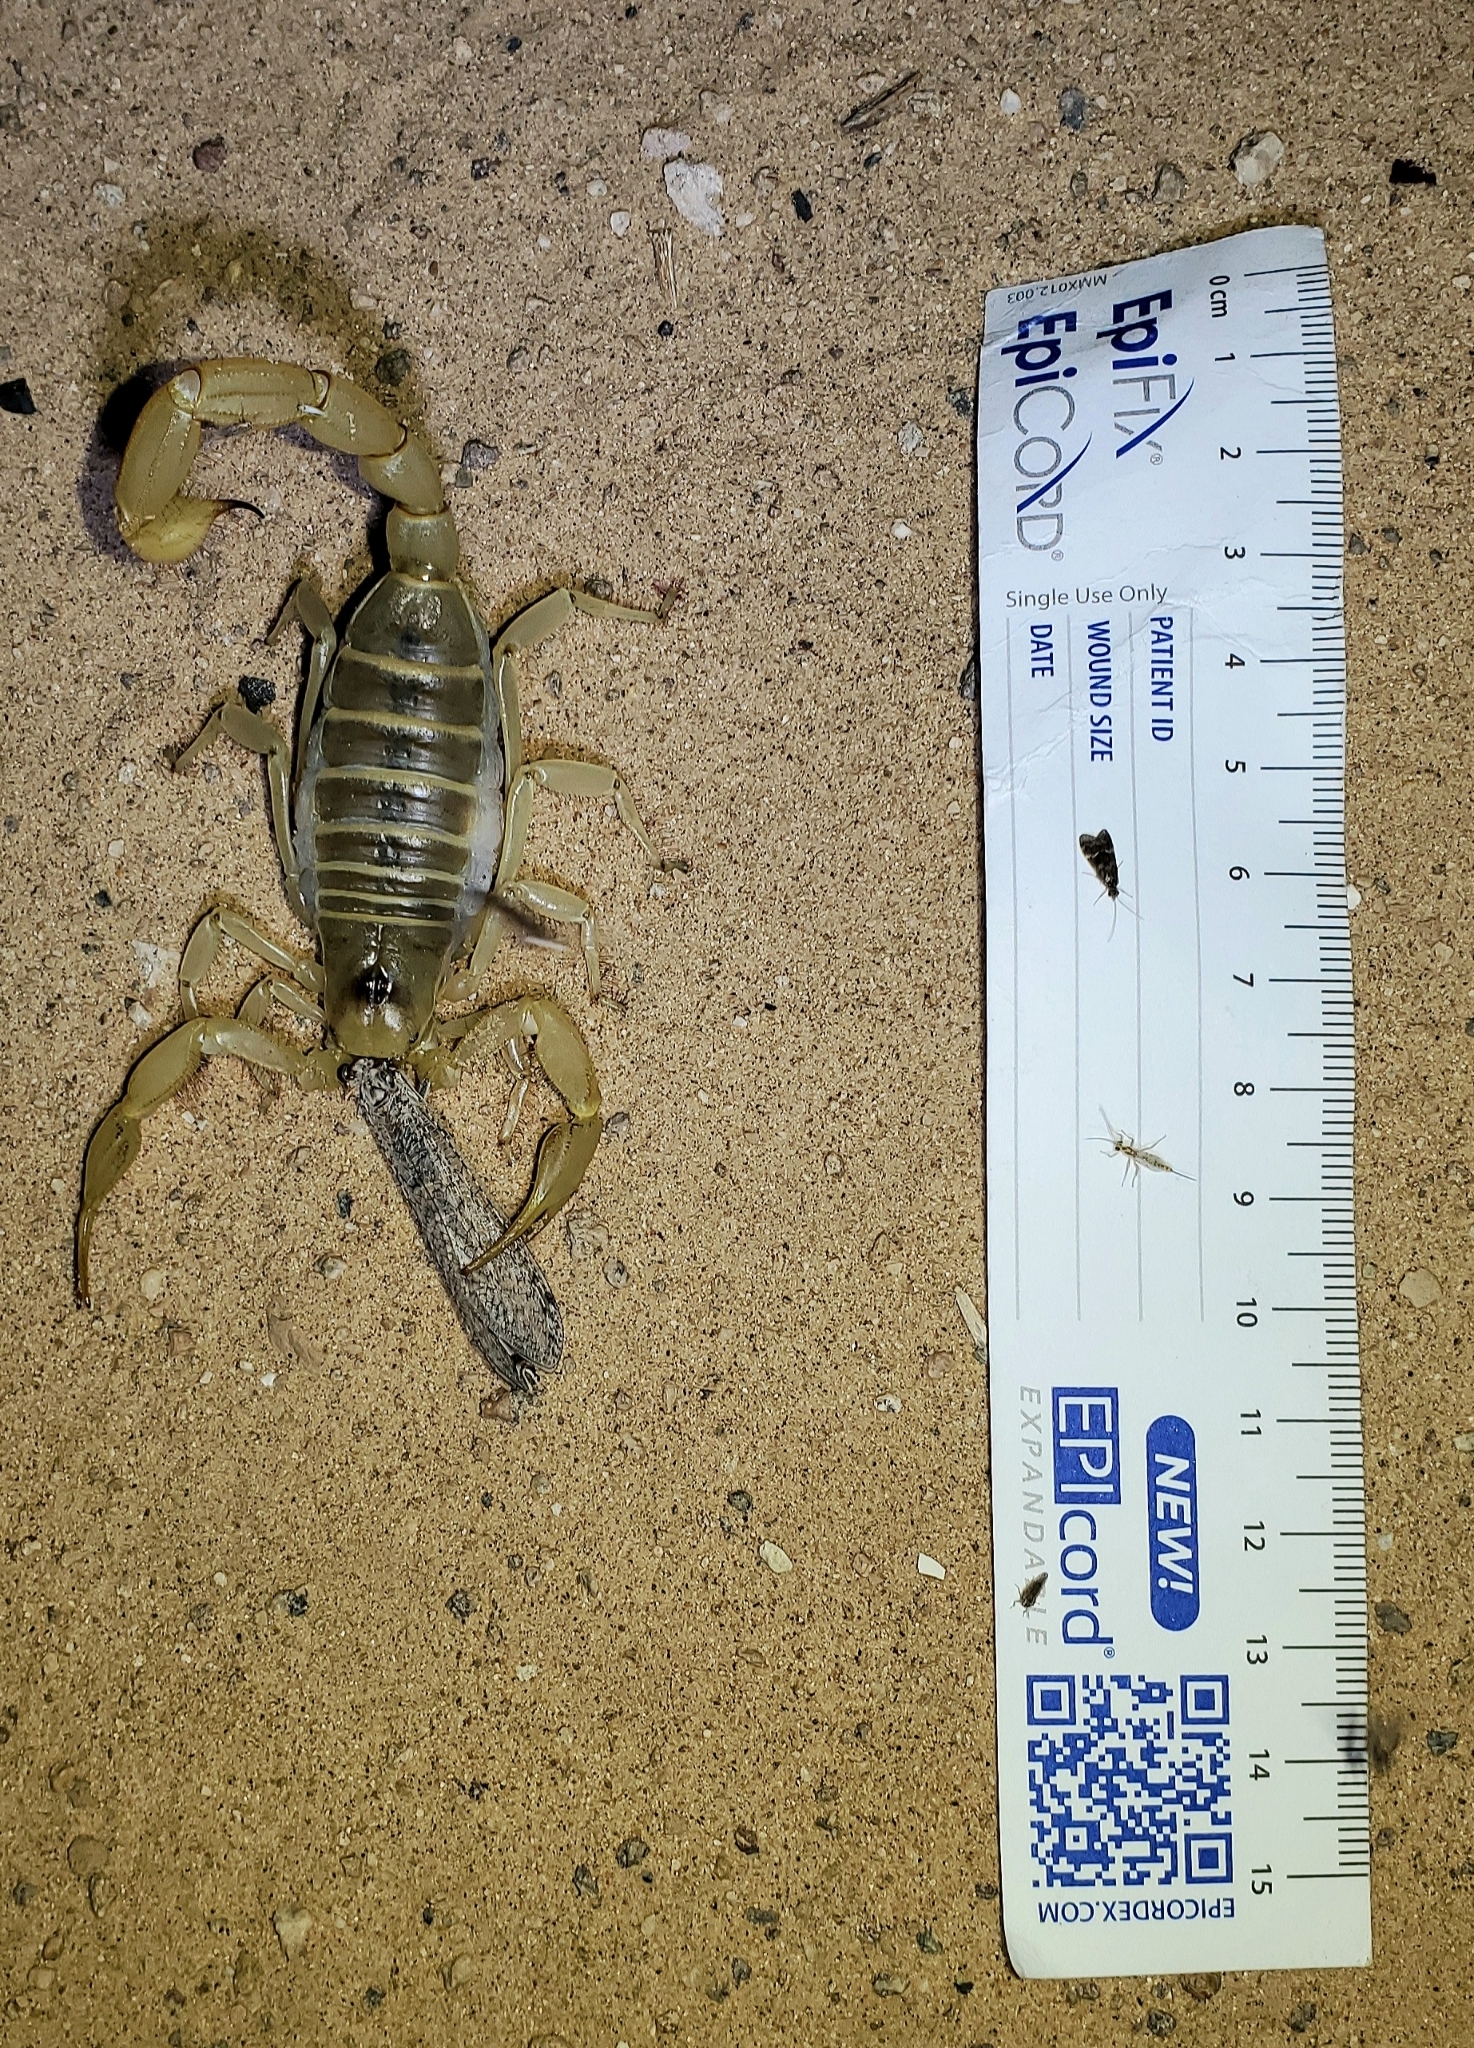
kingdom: Animalia
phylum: Arthropoda
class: Arachnida
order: Scorpiones
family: Hadruridae
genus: Hadrurus
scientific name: Hadrurus arizonensis
